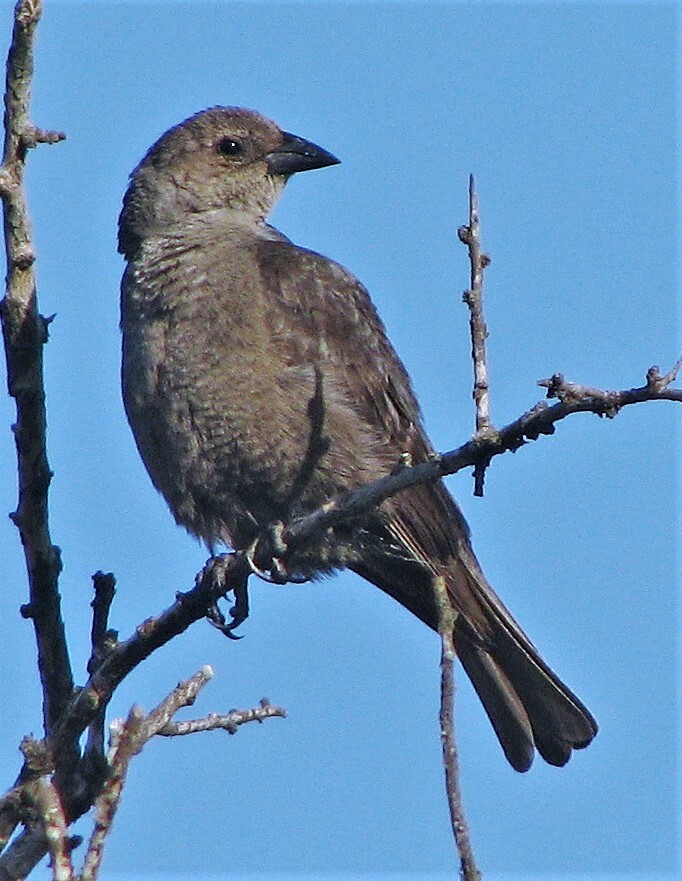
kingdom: Animalia
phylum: Chordata
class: Aves
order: Passeriformes
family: Icteridae
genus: Molothrus
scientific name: Molothrus bonariensis
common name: Shiny cowbird
